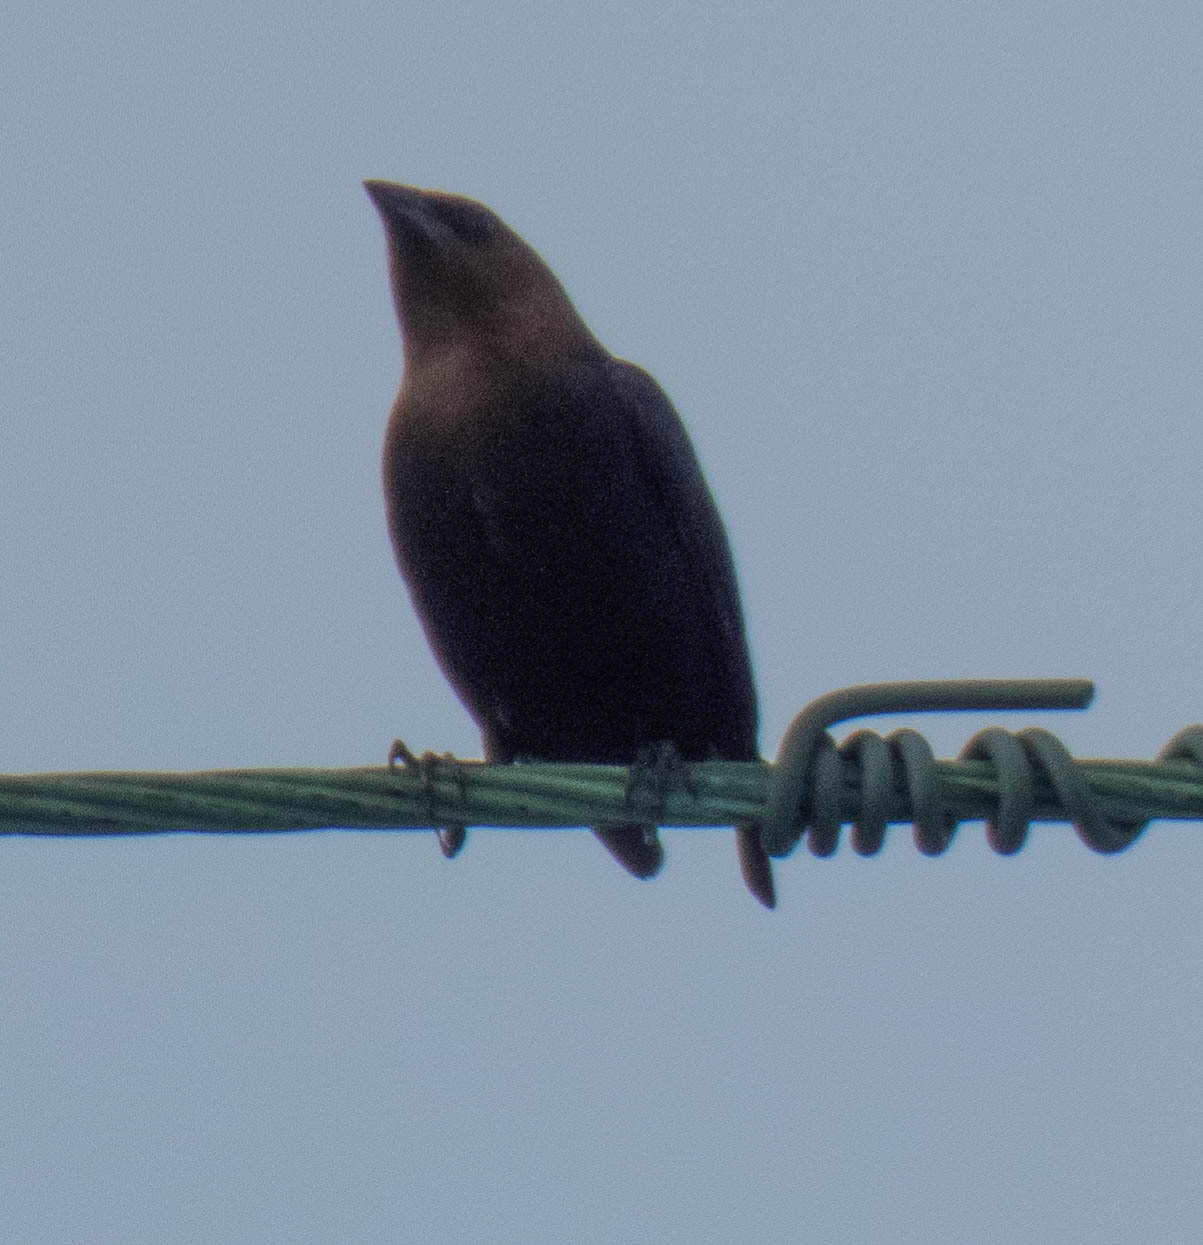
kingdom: Animalia
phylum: Chordata
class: Aves
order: Passeriformes
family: Icteridae
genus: Molothrus
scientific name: Molothrus ater
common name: Brown-headed cowbird
